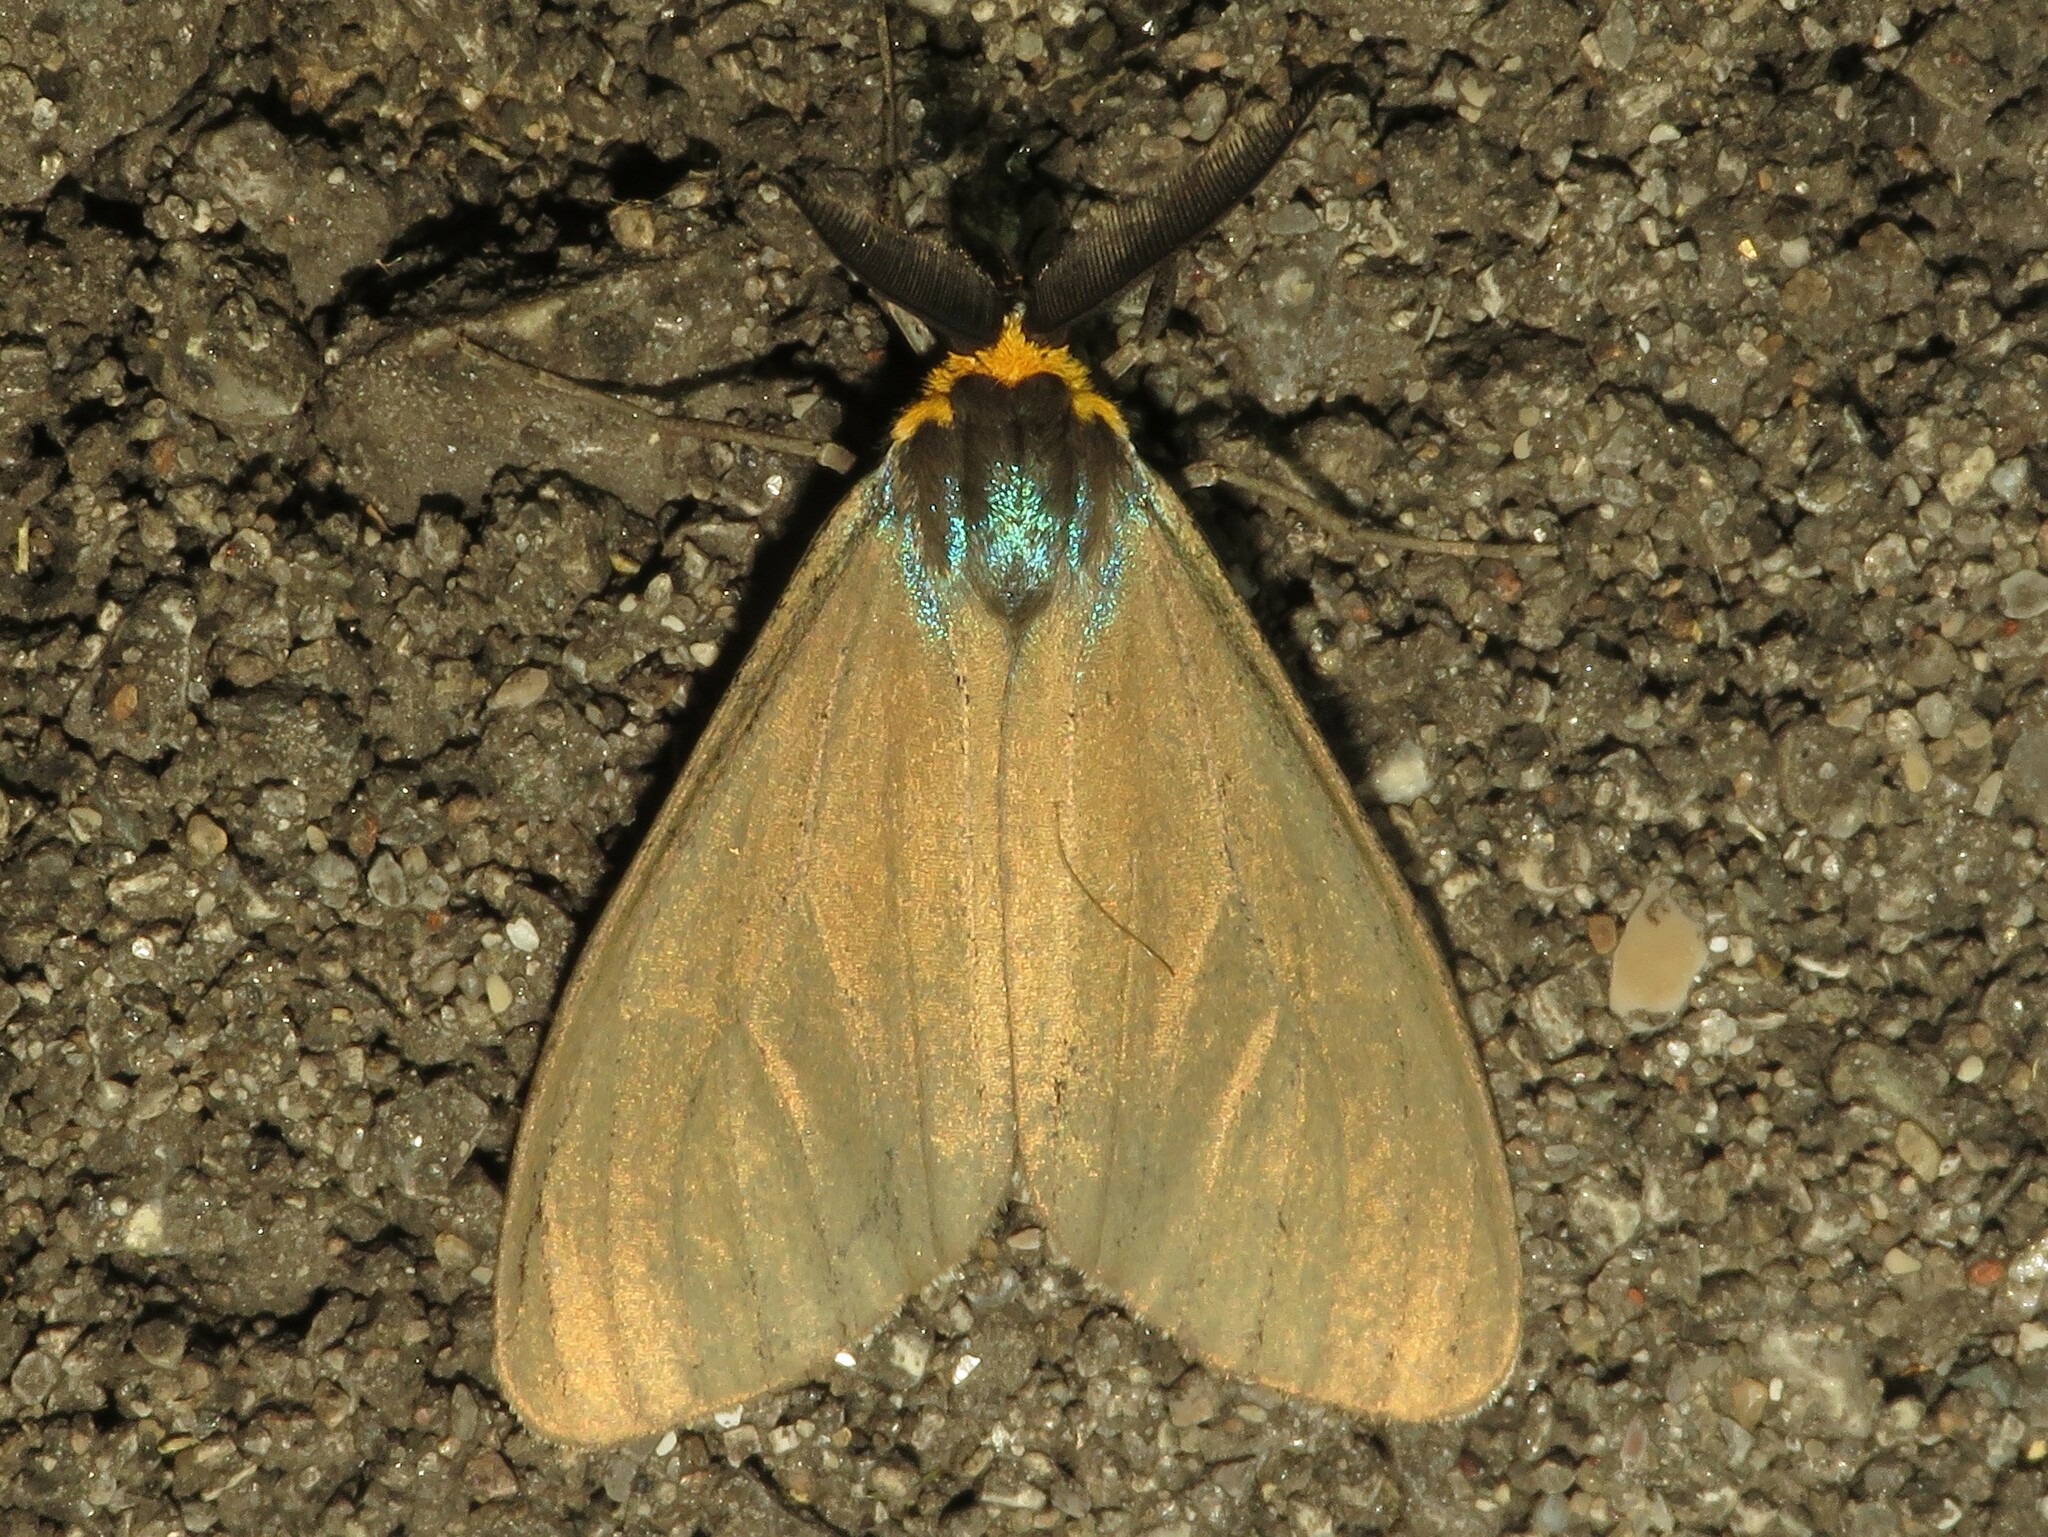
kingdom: Animalia
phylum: Arthropoda
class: Insecta
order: Lepidoptera
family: Erebidae
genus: Ctenucha
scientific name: Ctenucha virginica
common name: Virginia ctenucha moth
